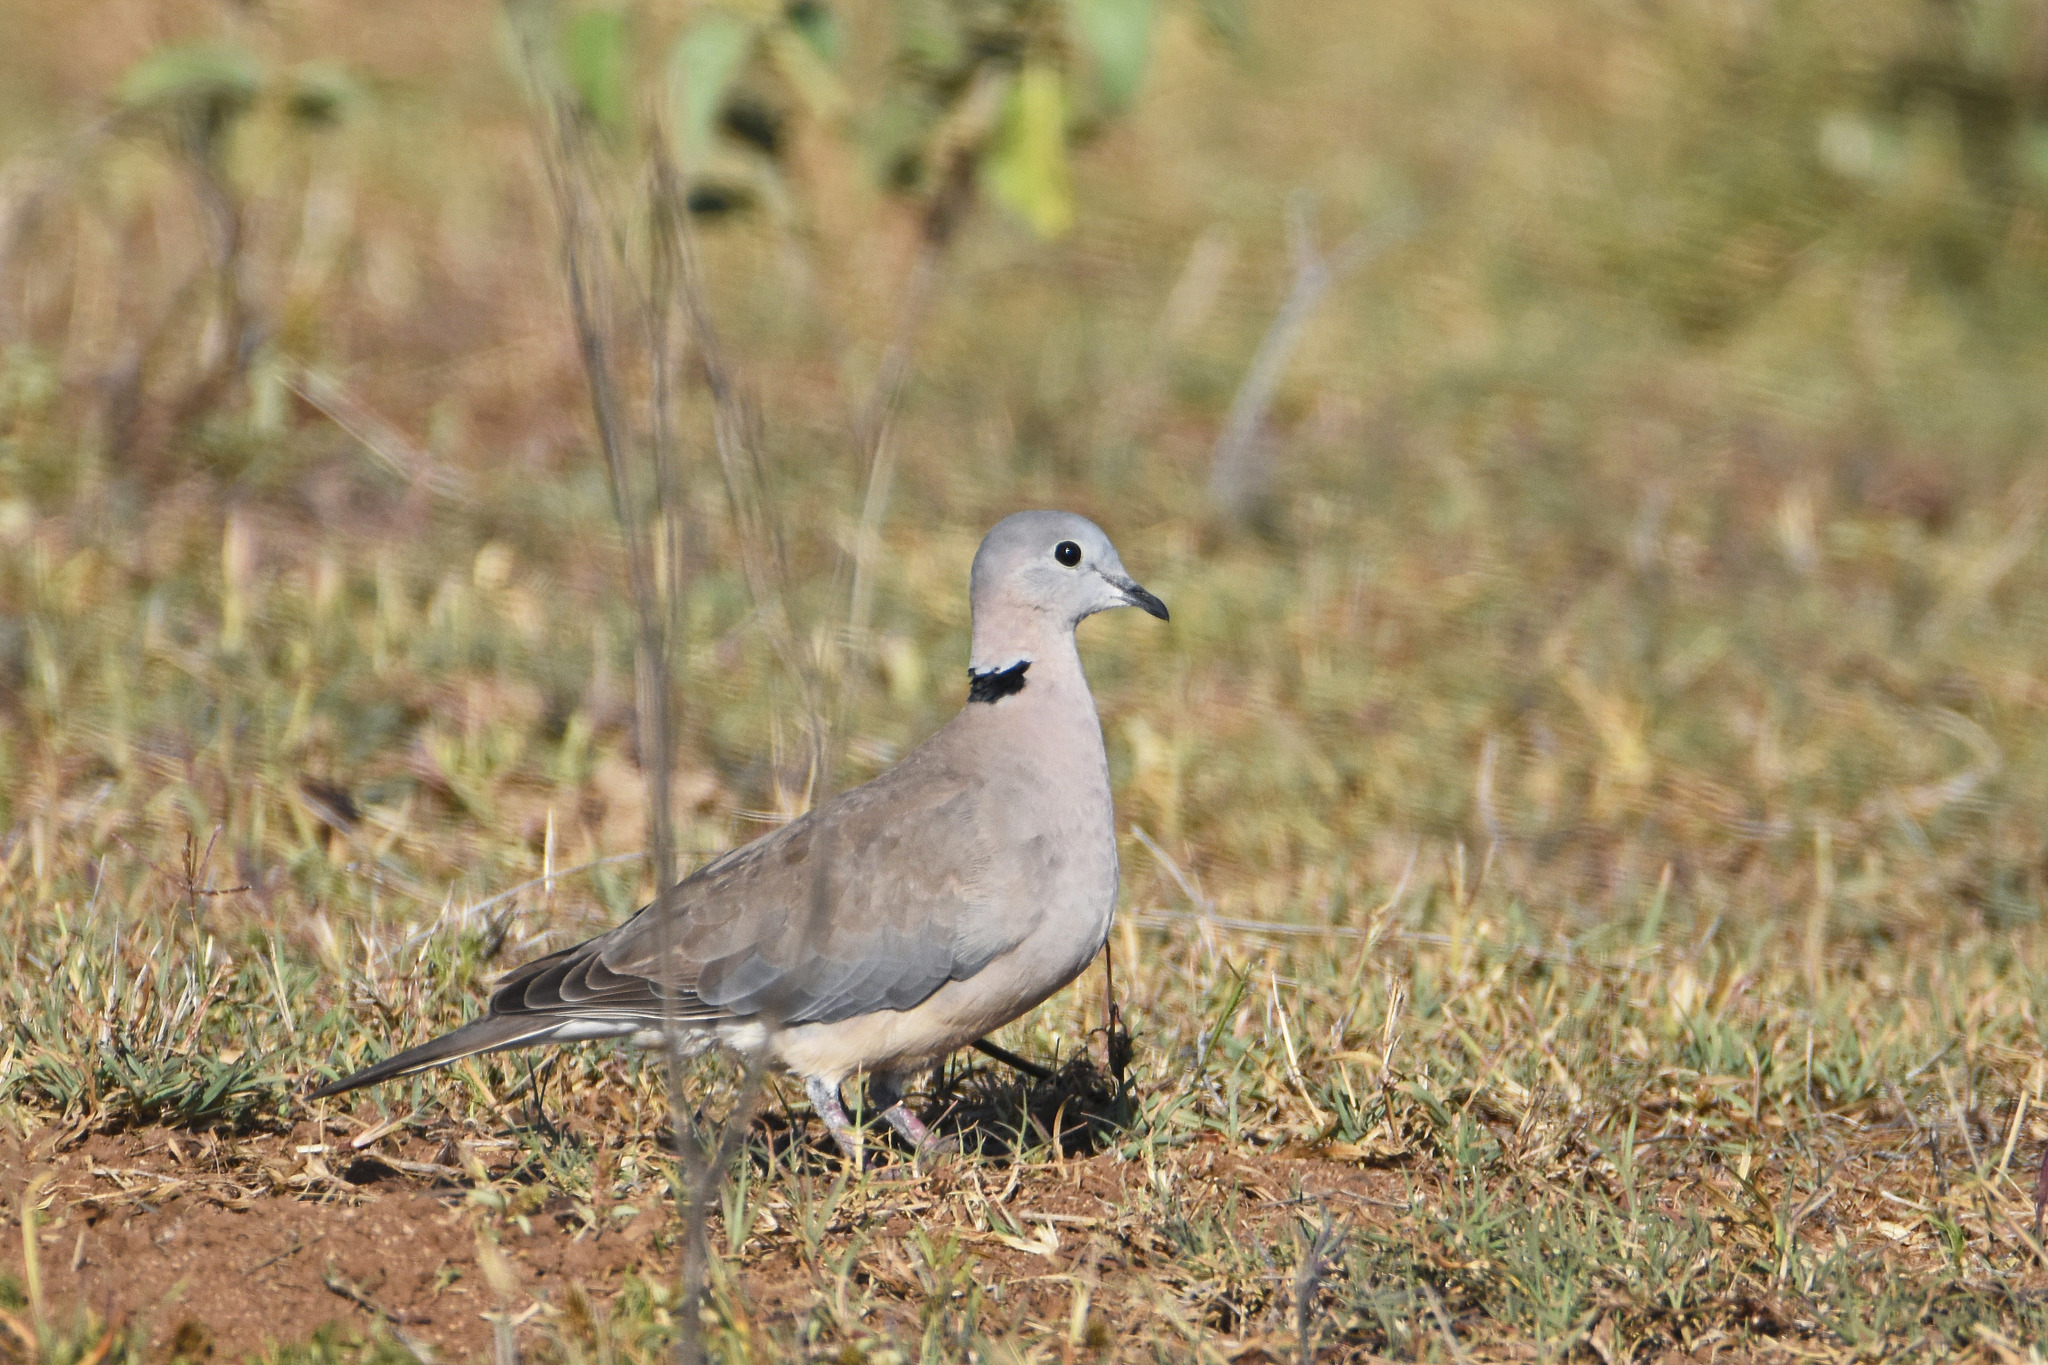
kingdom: Animalia
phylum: Chordata
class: Aves
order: Columbiformes
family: Columbidae
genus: Streptopelia
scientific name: Streptopelia capicola
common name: Ring-necked dove
